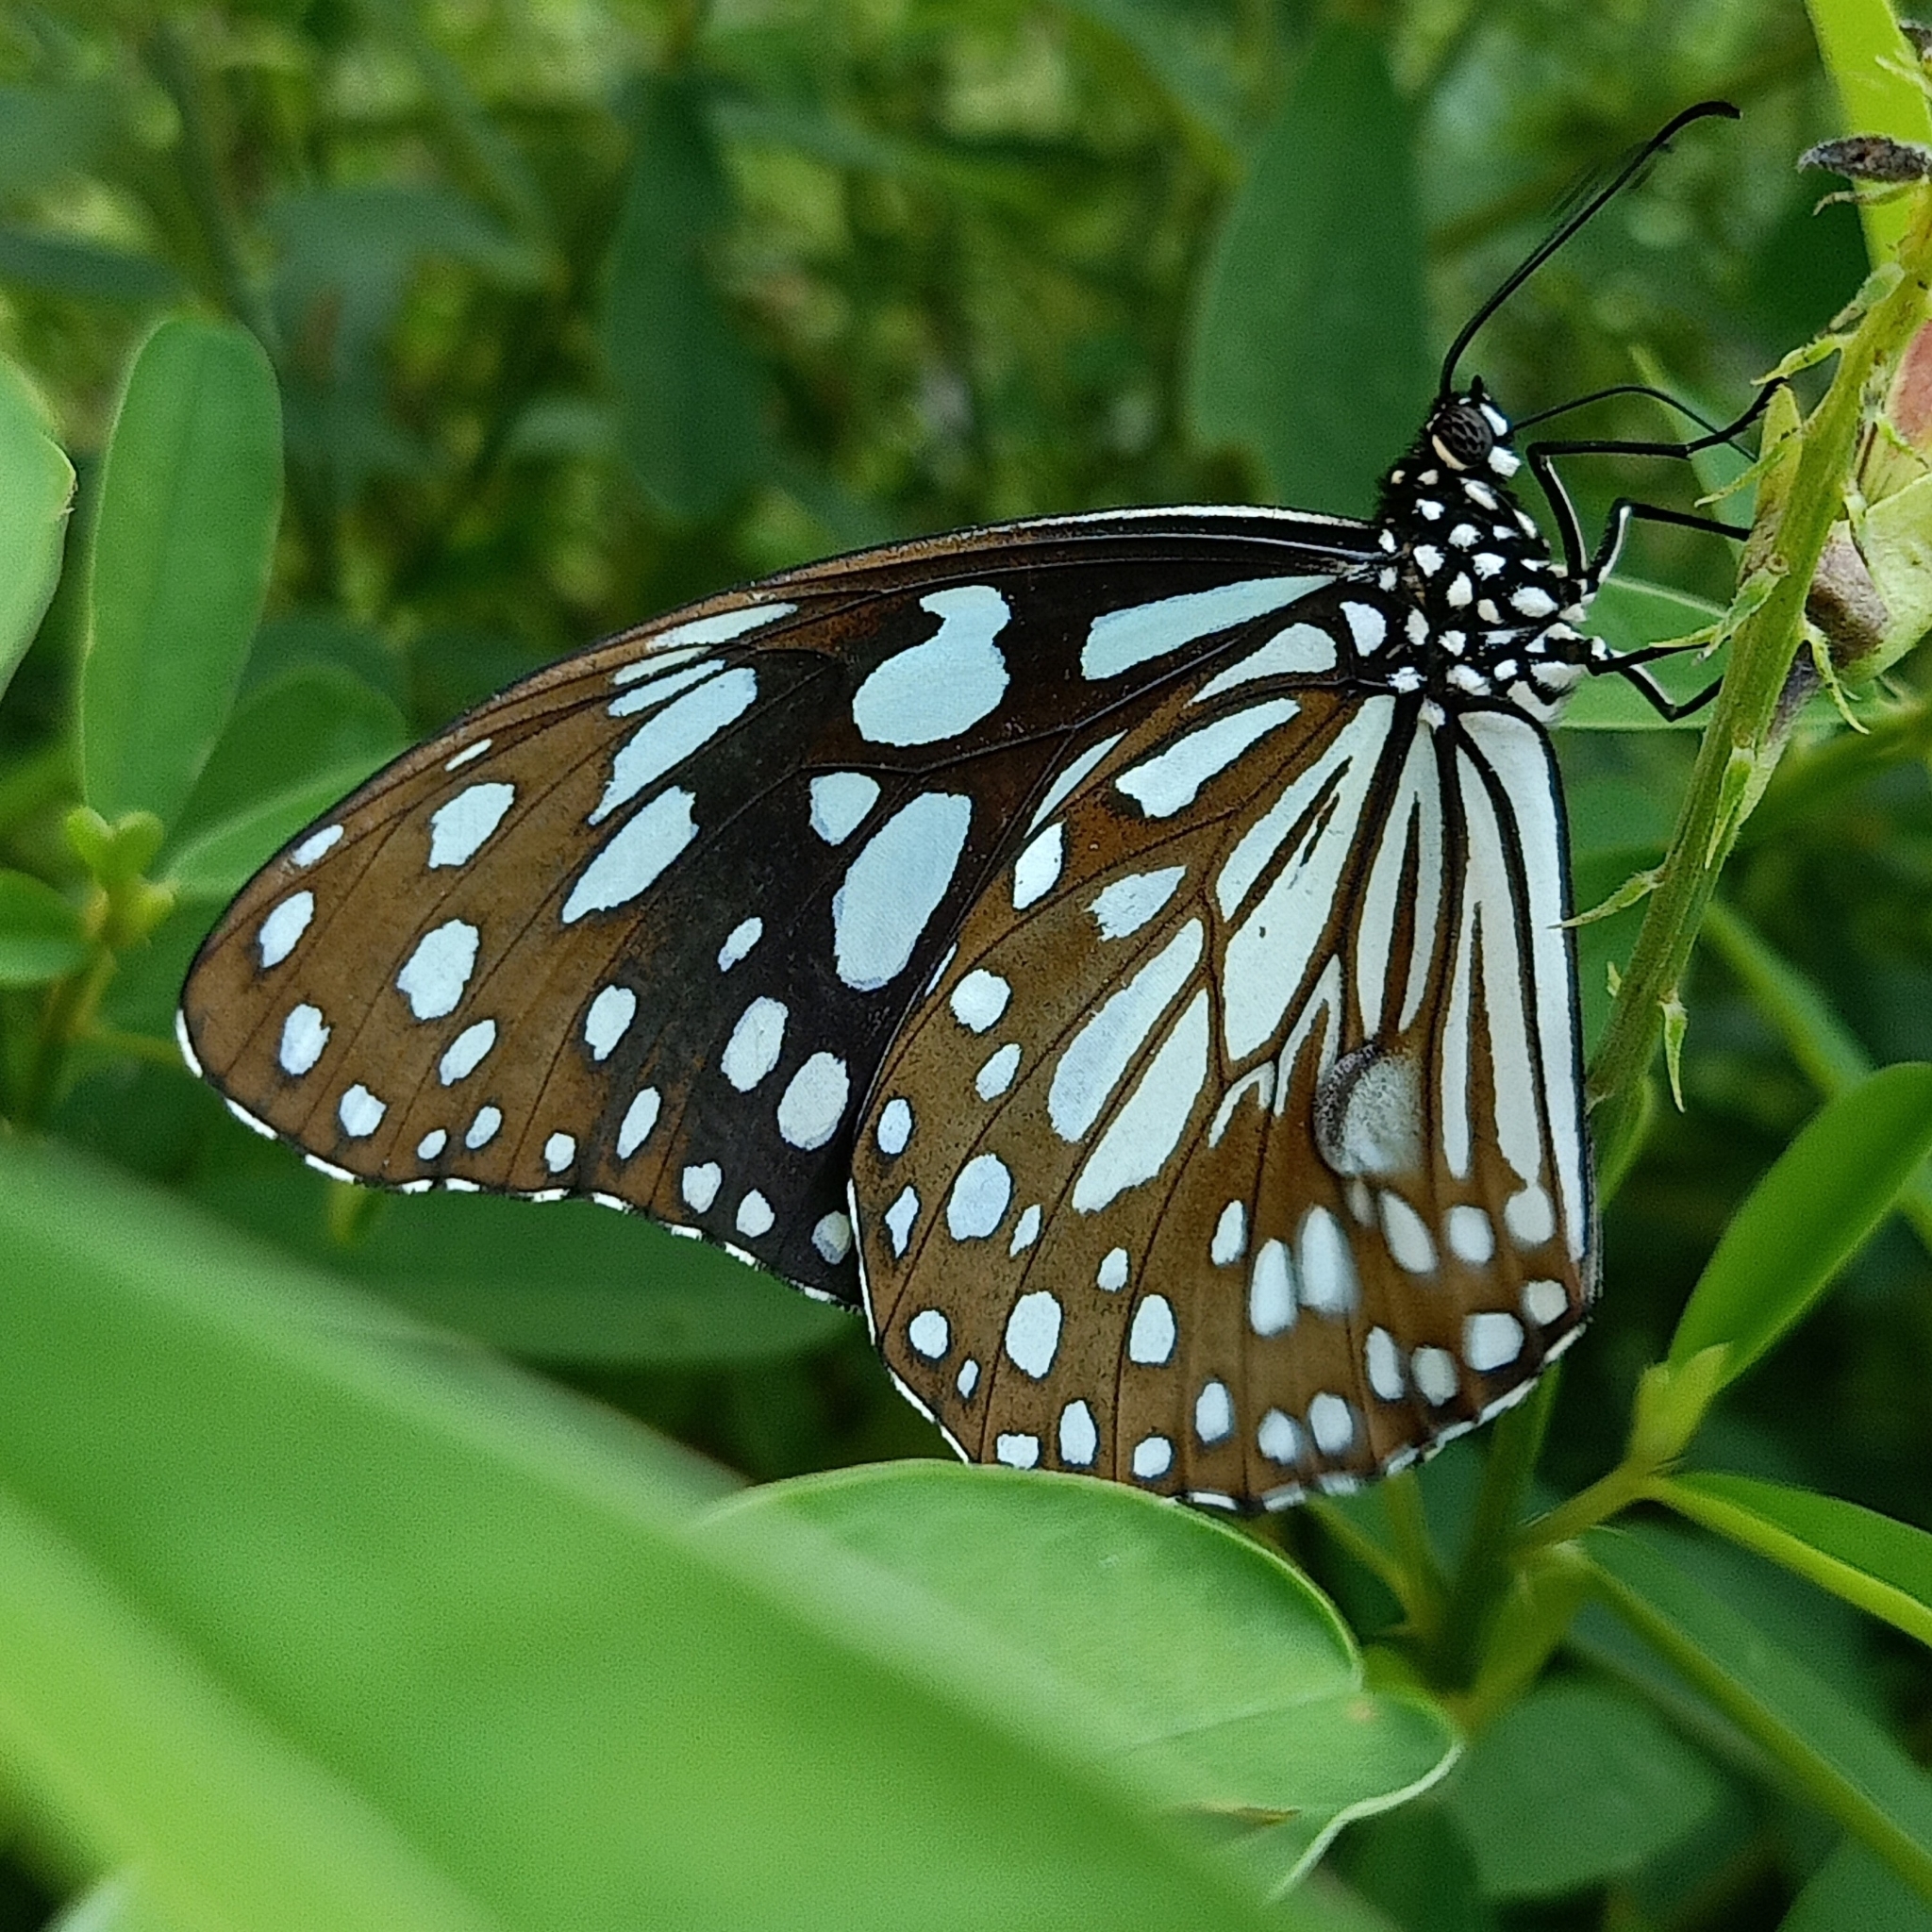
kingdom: Animalia
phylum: Arthropoda
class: Insecta
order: Lepidoptera
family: Nymphalidae
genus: Tirumala
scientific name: Tirumala limniace
